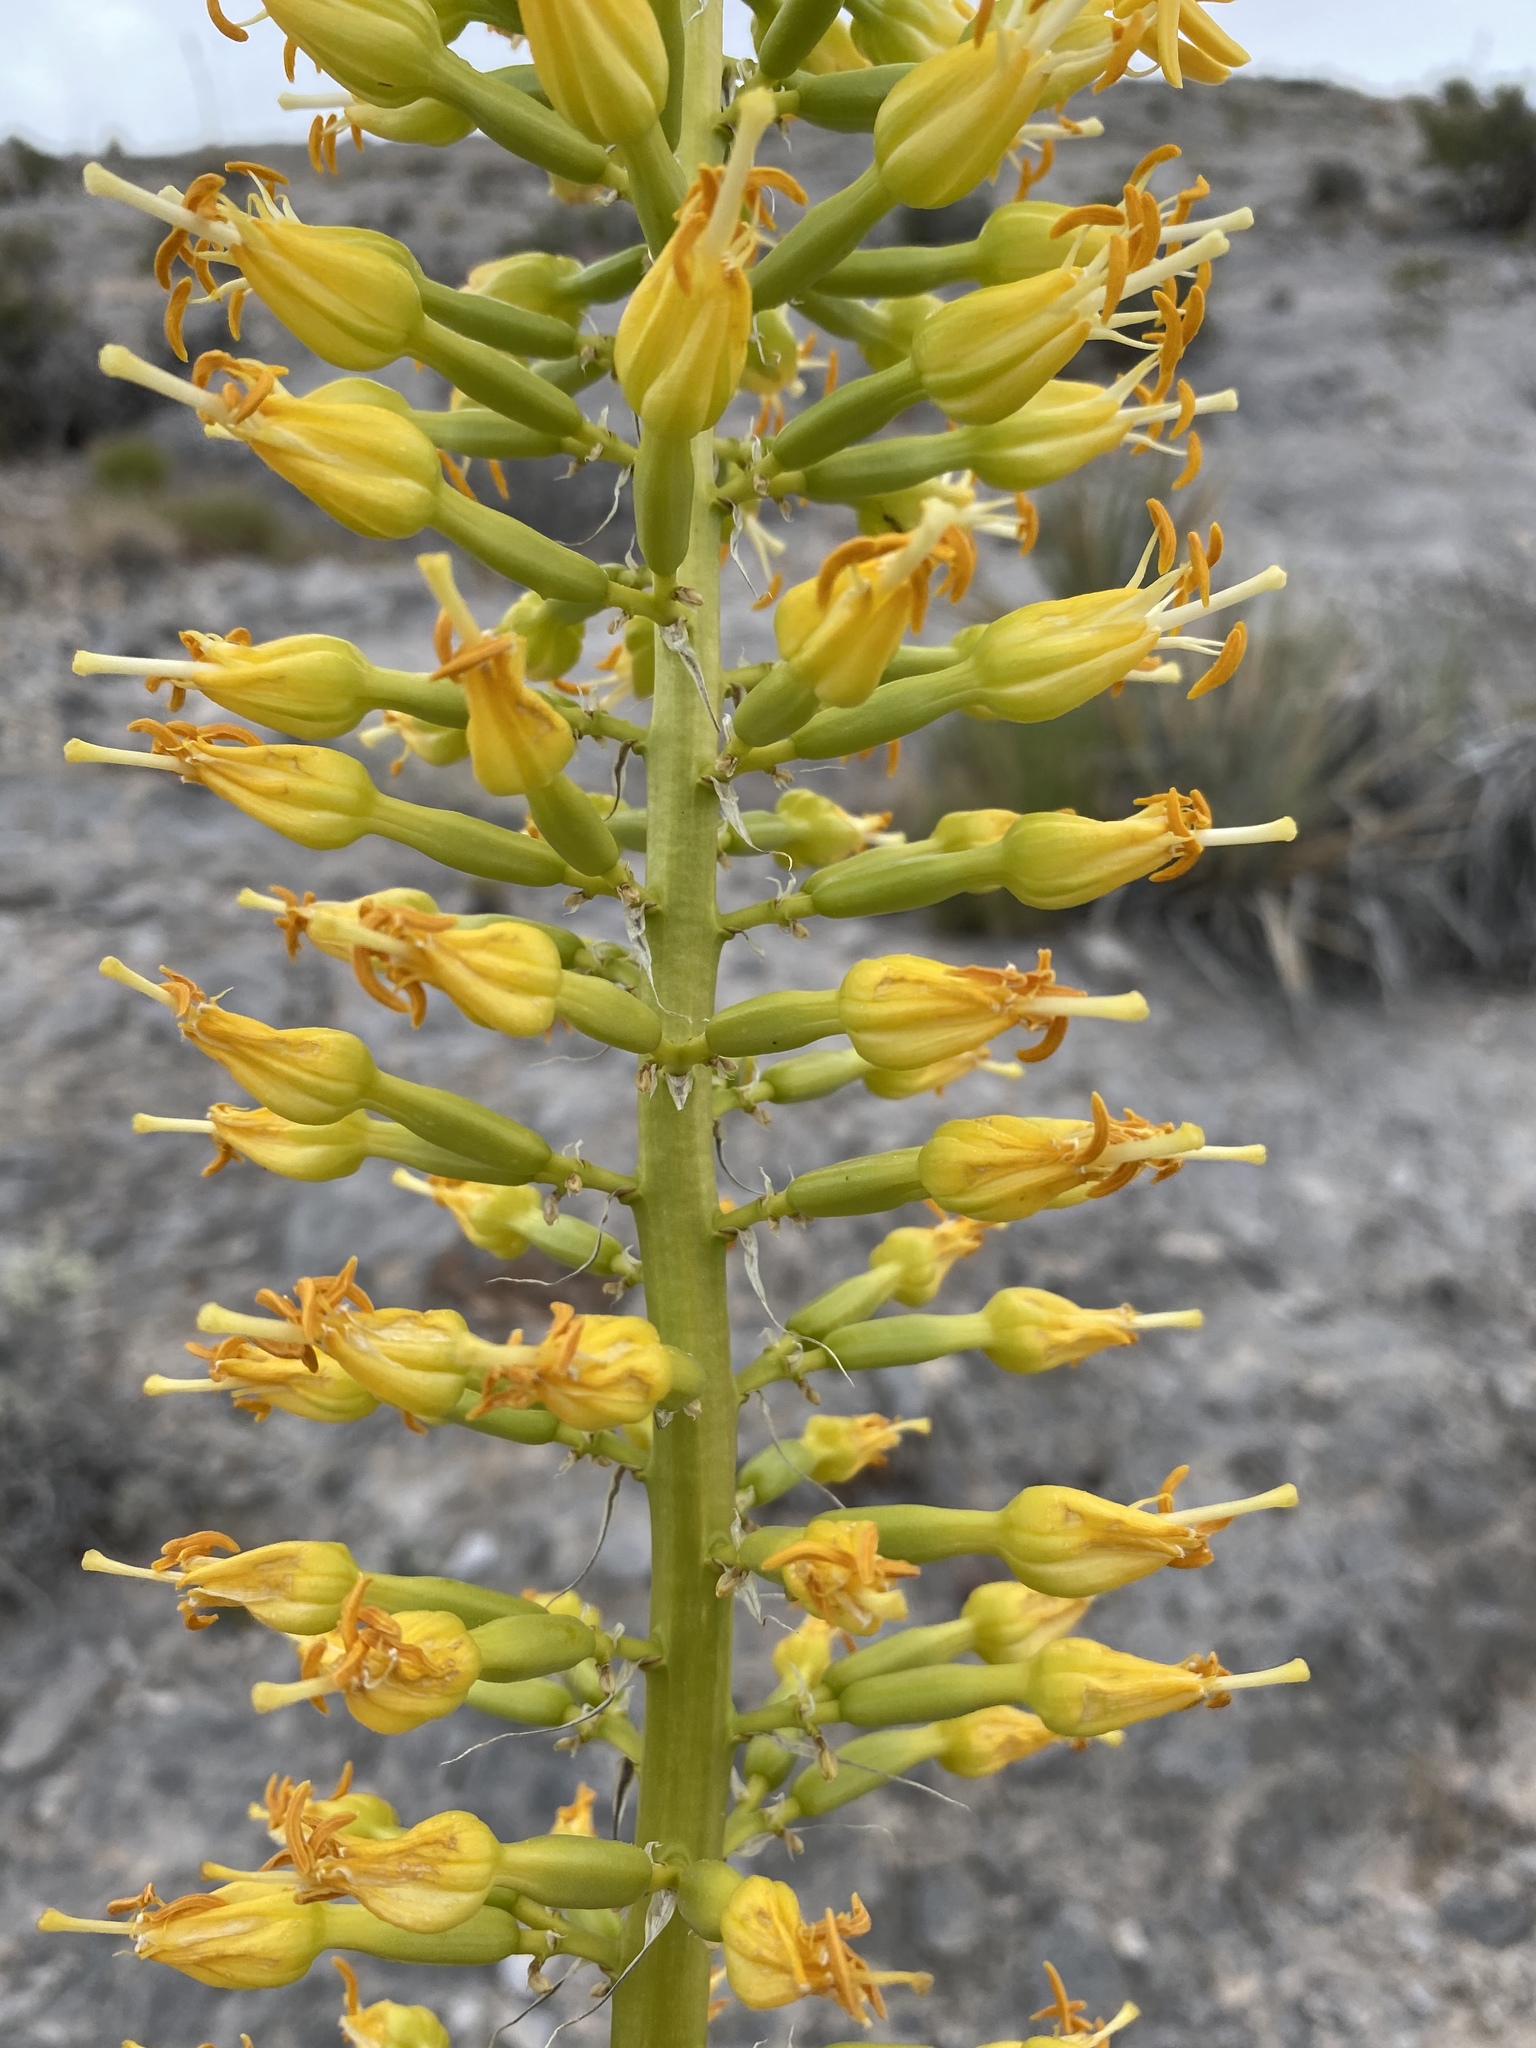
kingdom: Plantae
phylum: Tracheophyta
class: Liliopsida
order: Asparagales
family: Asparagaceae
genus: Agave
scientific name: Agave utahensis
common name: Utah agave
